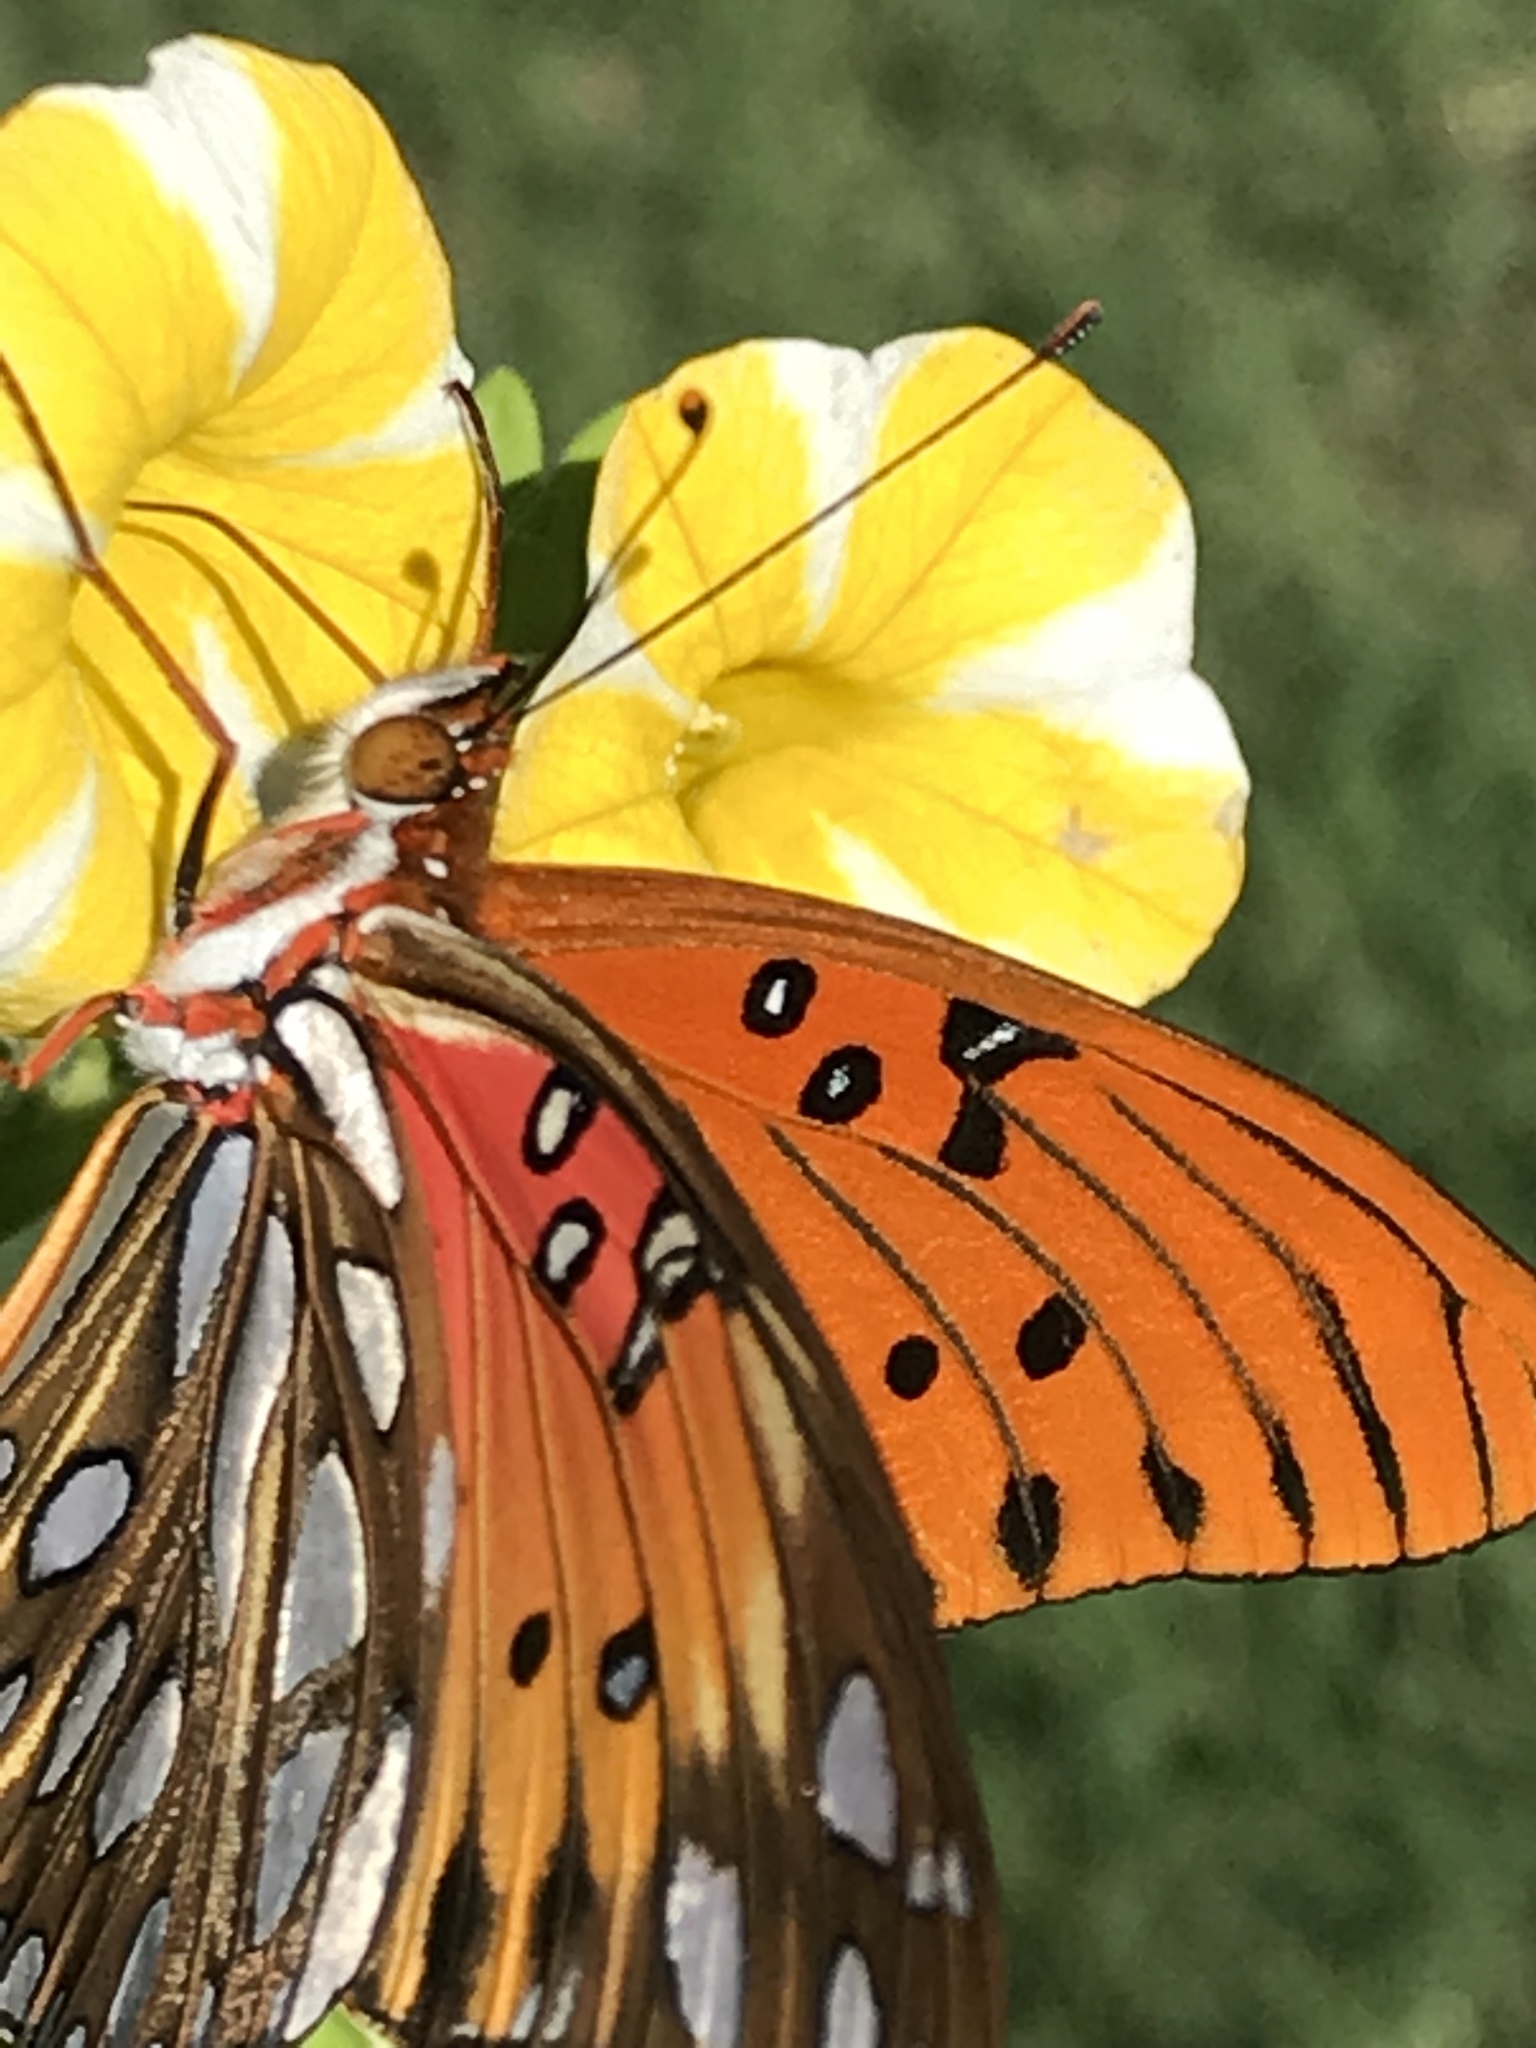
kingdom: Animalia
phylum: Arthropoda
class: Insecta
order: Lepidoptera
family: Nymphalidae
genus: Dione
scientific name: Dione vanillae
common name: Gulf fritillary
